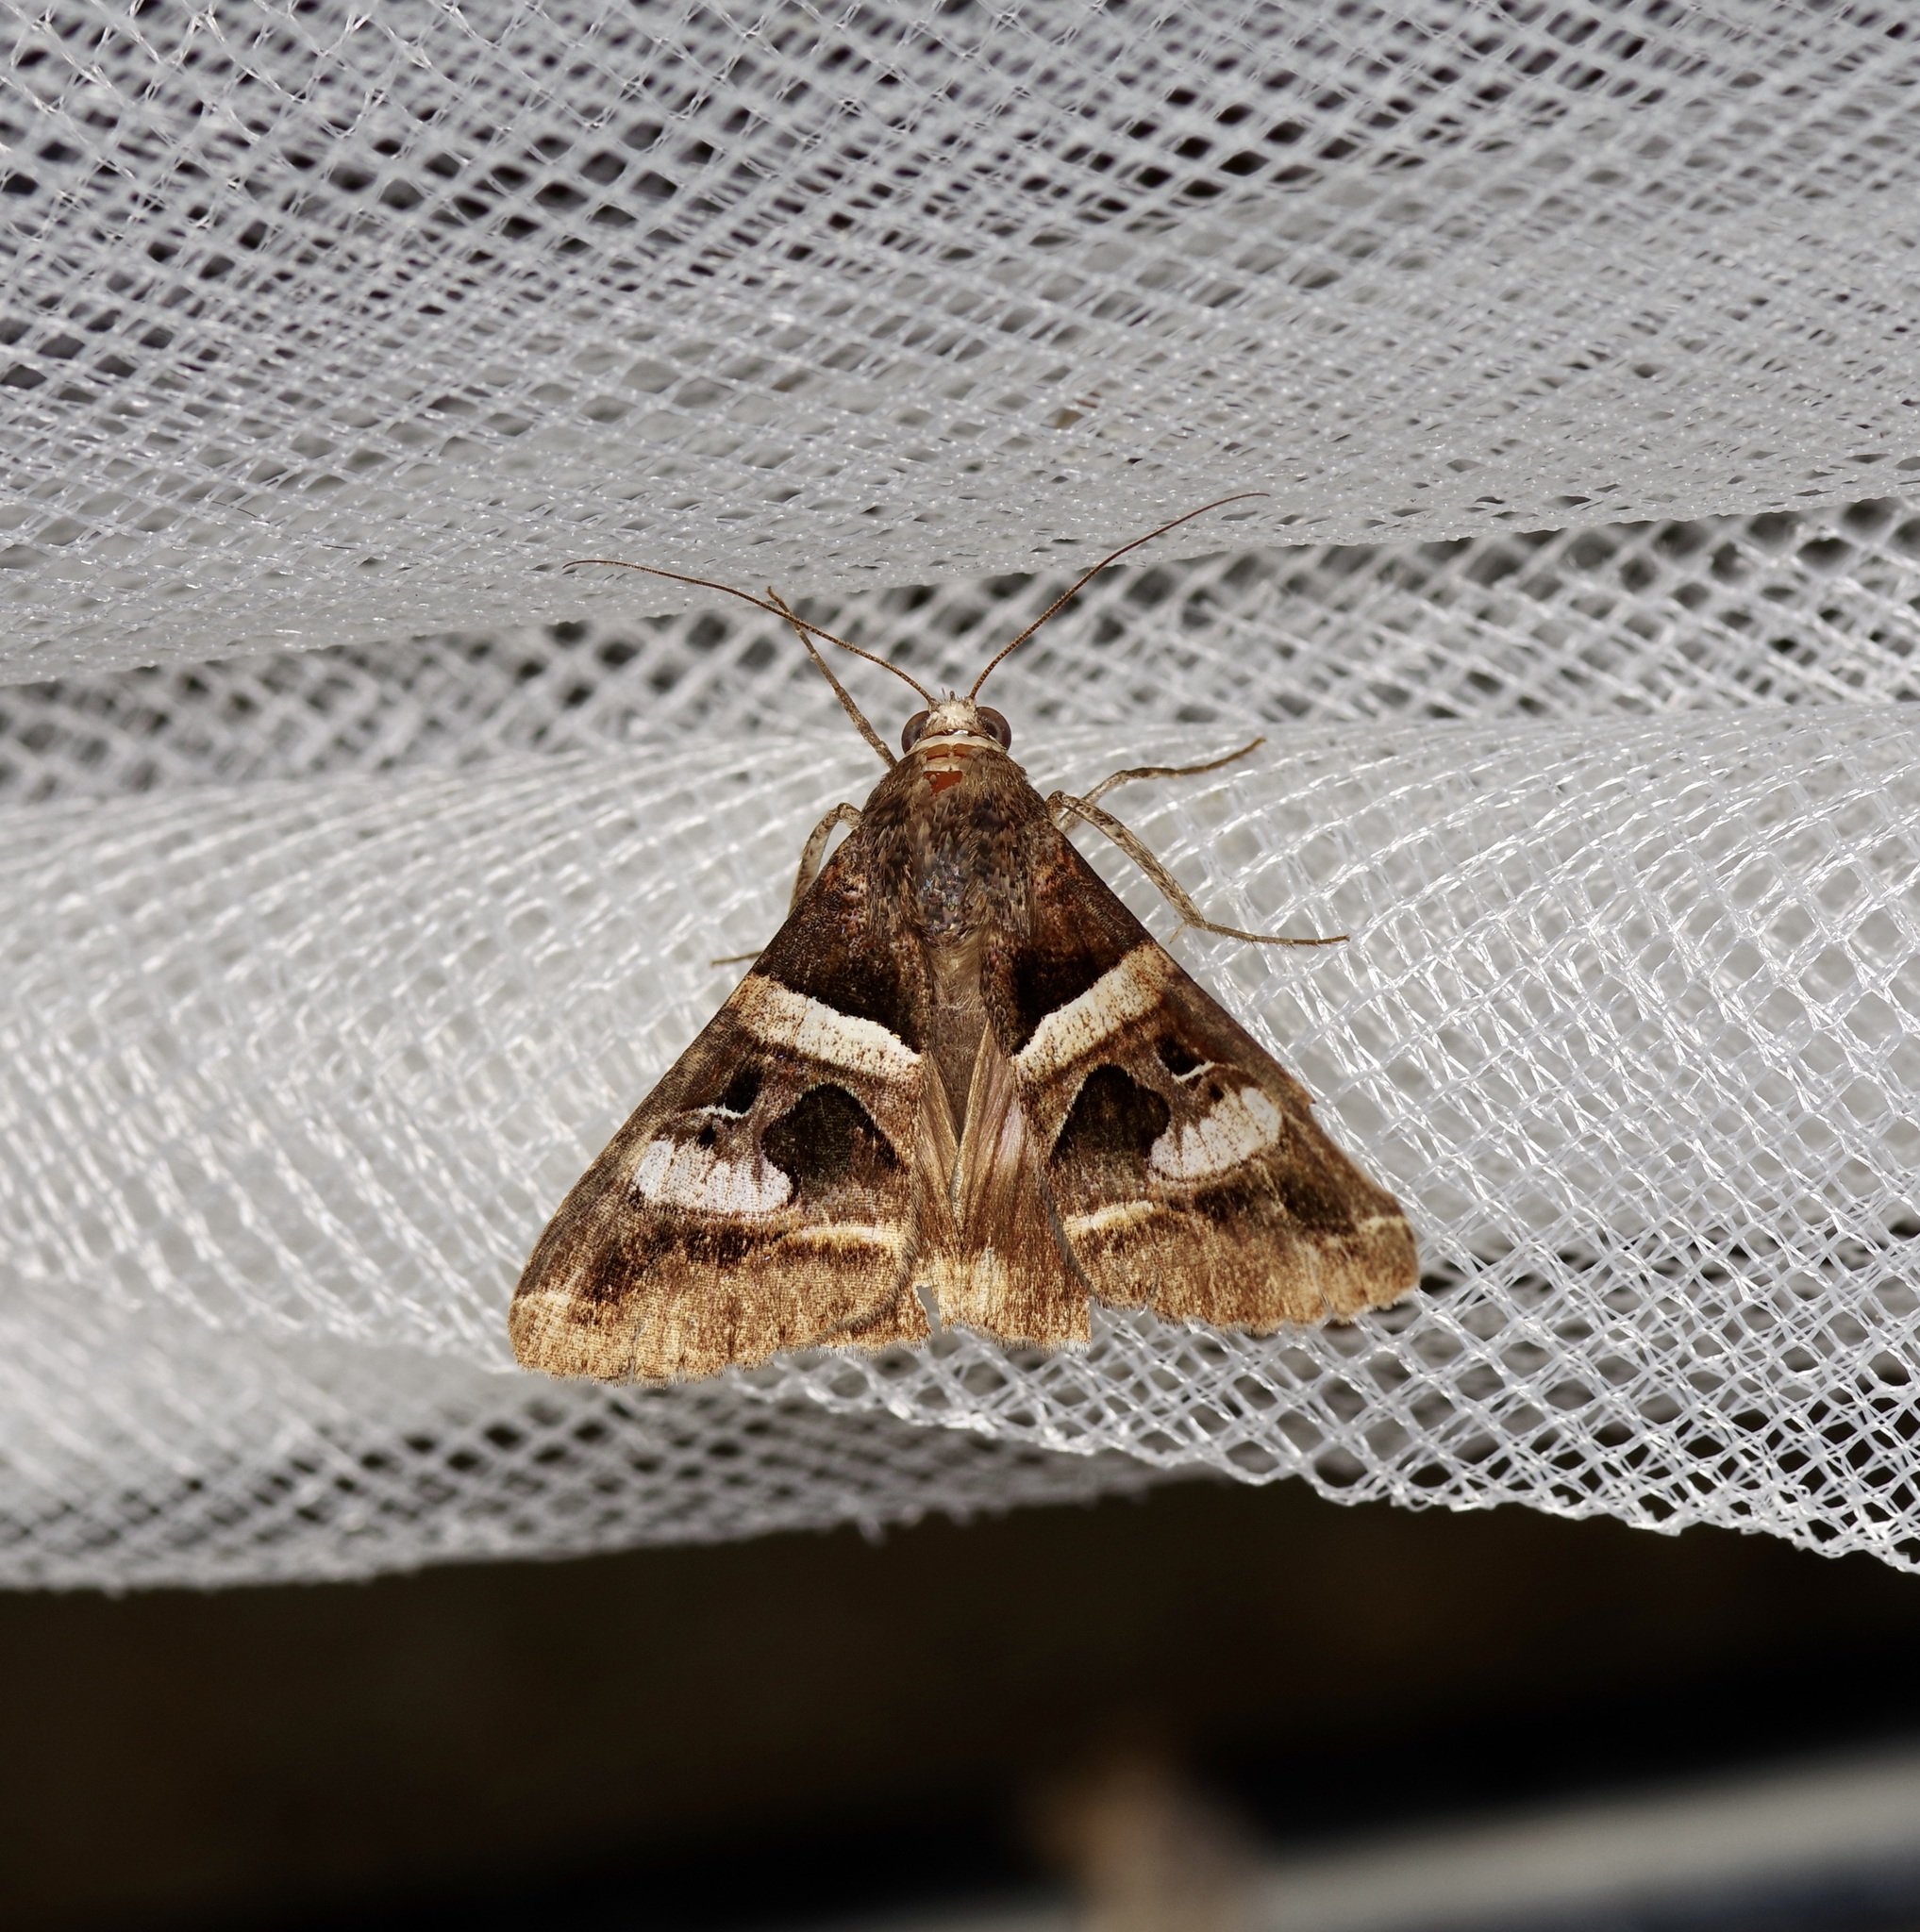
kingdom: Animalia
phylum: Arthropoda
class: Insecta
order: Lepidoptera
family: Erebidae
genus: Melipotis
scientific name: Melipotis perpendicularis
